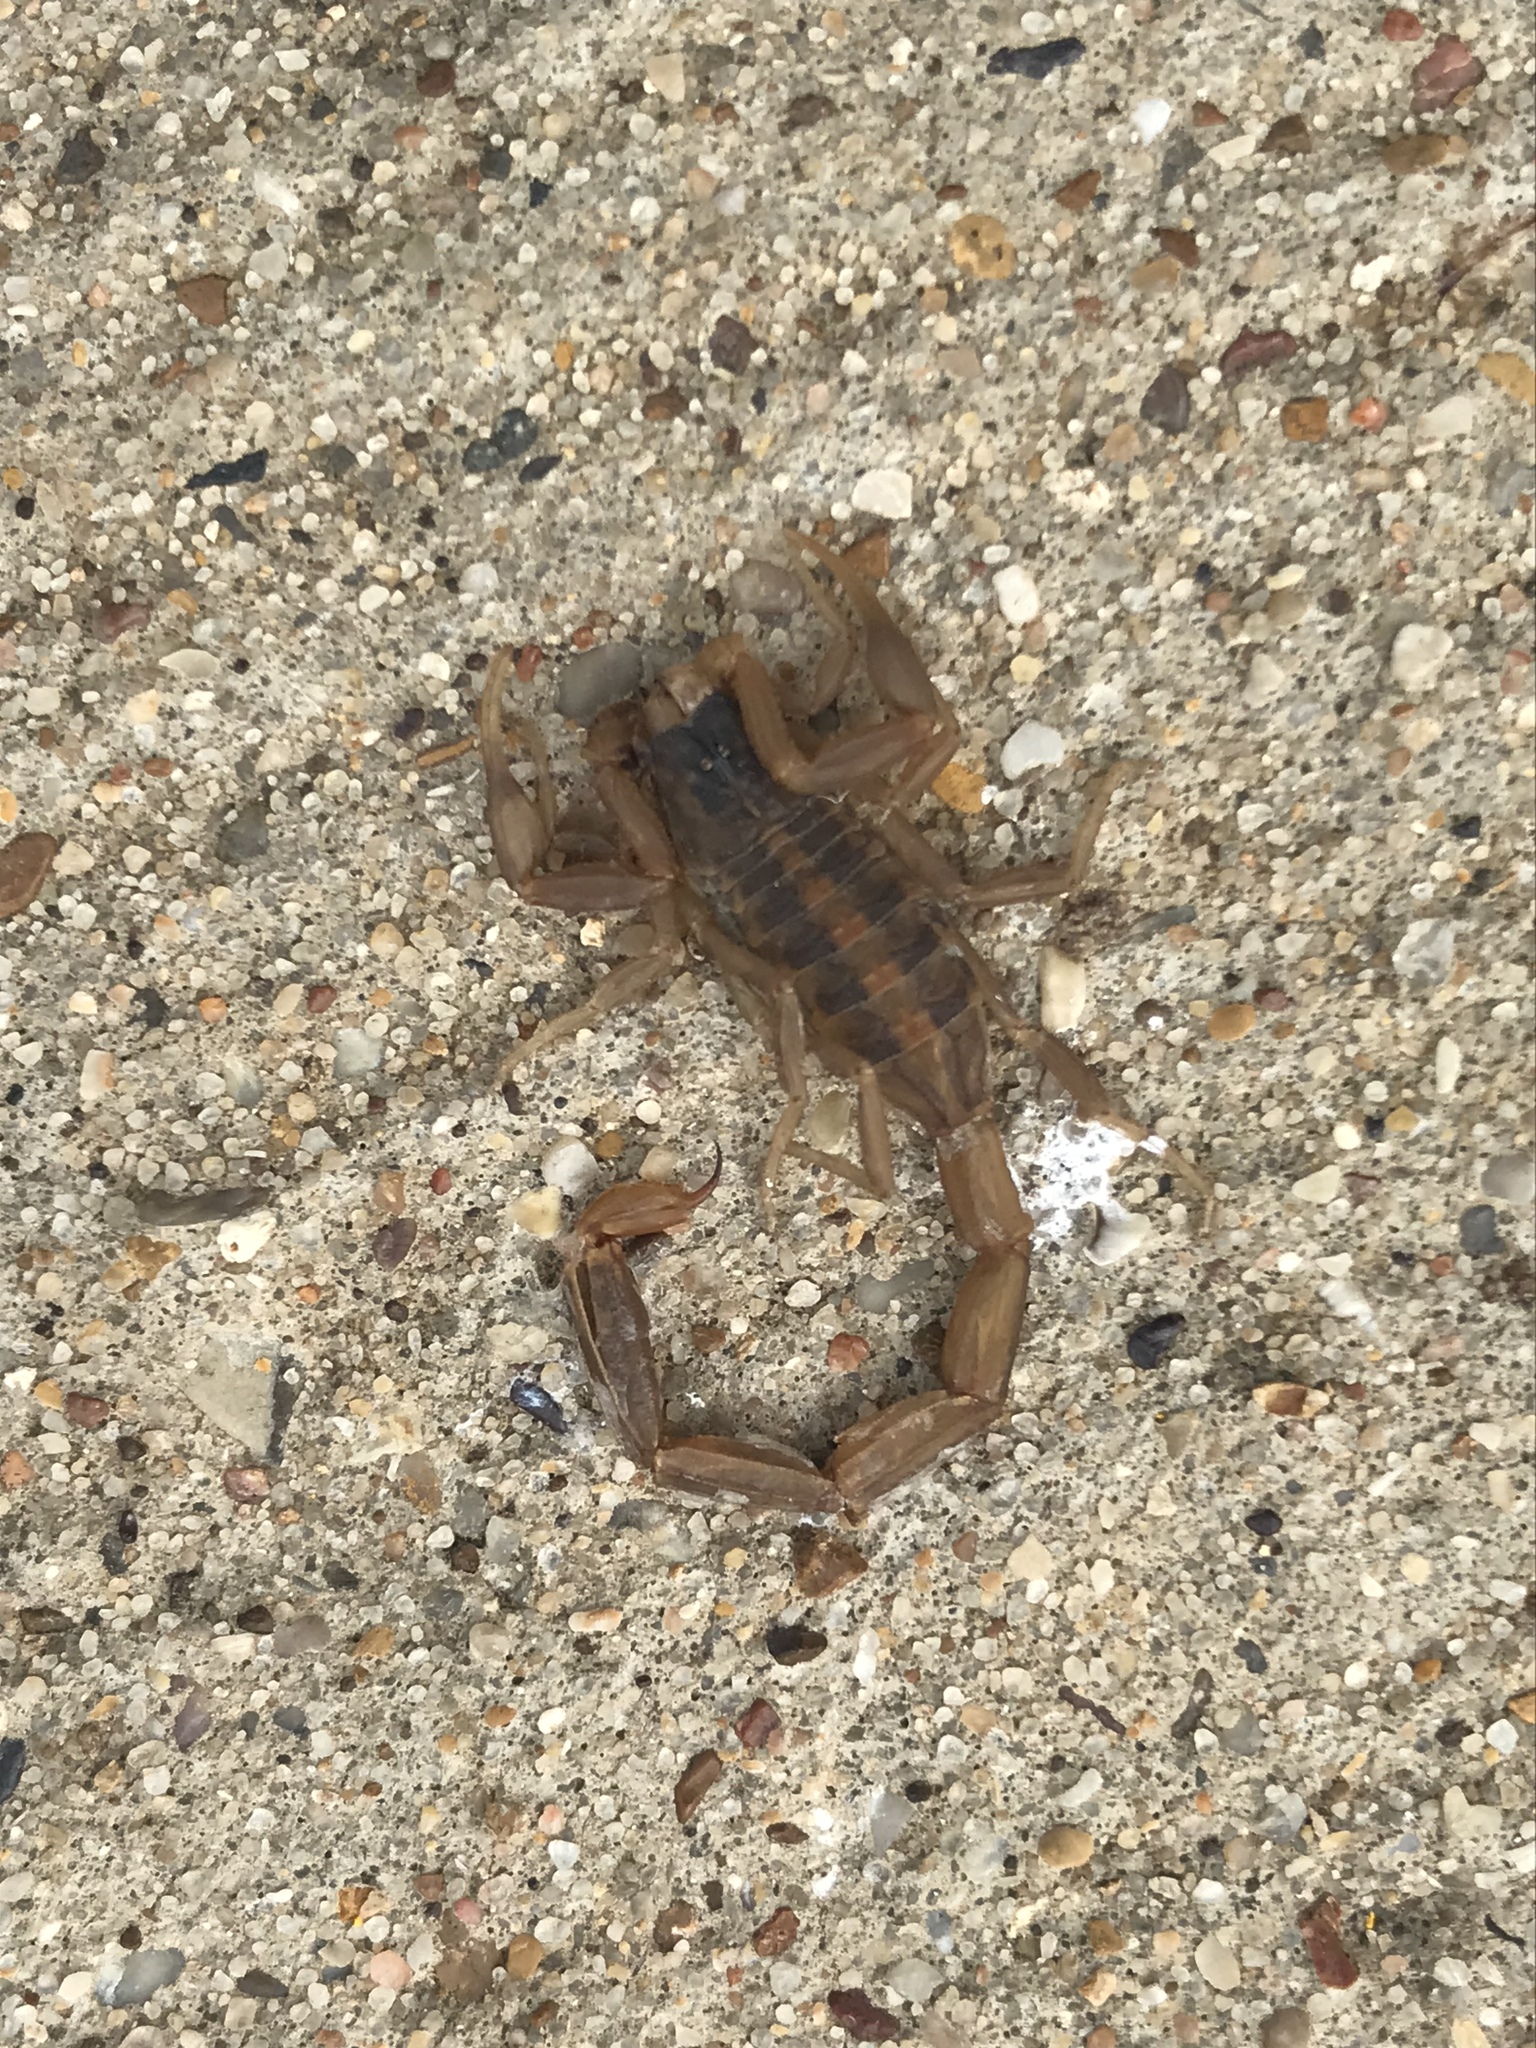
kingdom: Animalia
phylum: Arthropoda
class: Arachnida
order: Scorpiones
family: Buthidae
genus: Centruroides
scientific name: Centruroides vittatus
